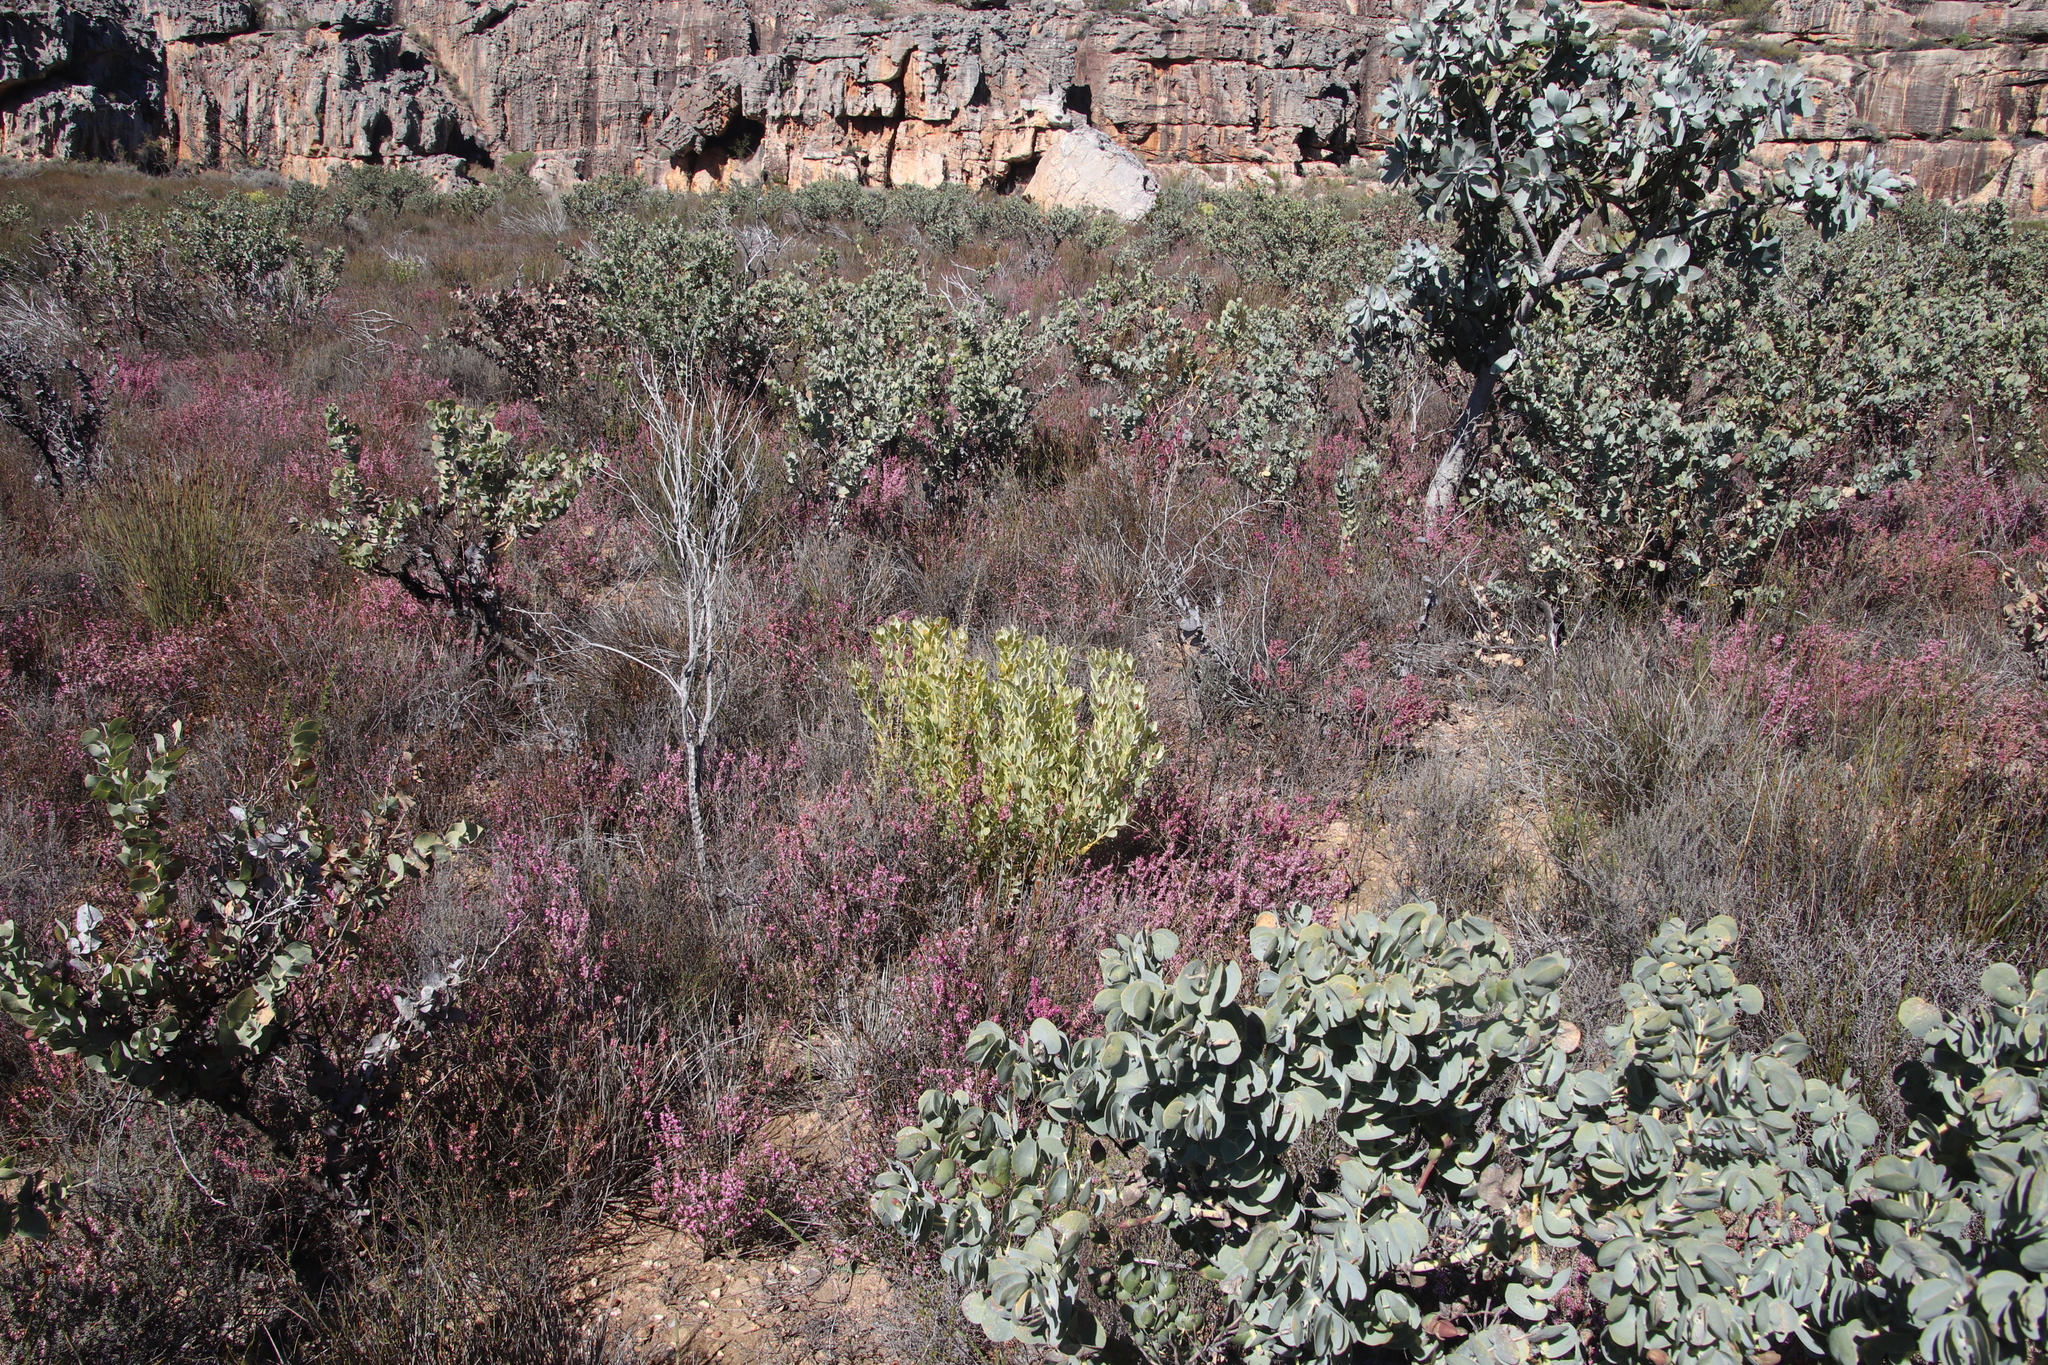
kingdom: Plantae
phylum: Tracheophyta
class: Magnoliopsida
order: Proteales
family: Proteaceae
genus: Leucadendron
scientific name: Leucadendron loranthifolium
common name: Green-flower sunbush
